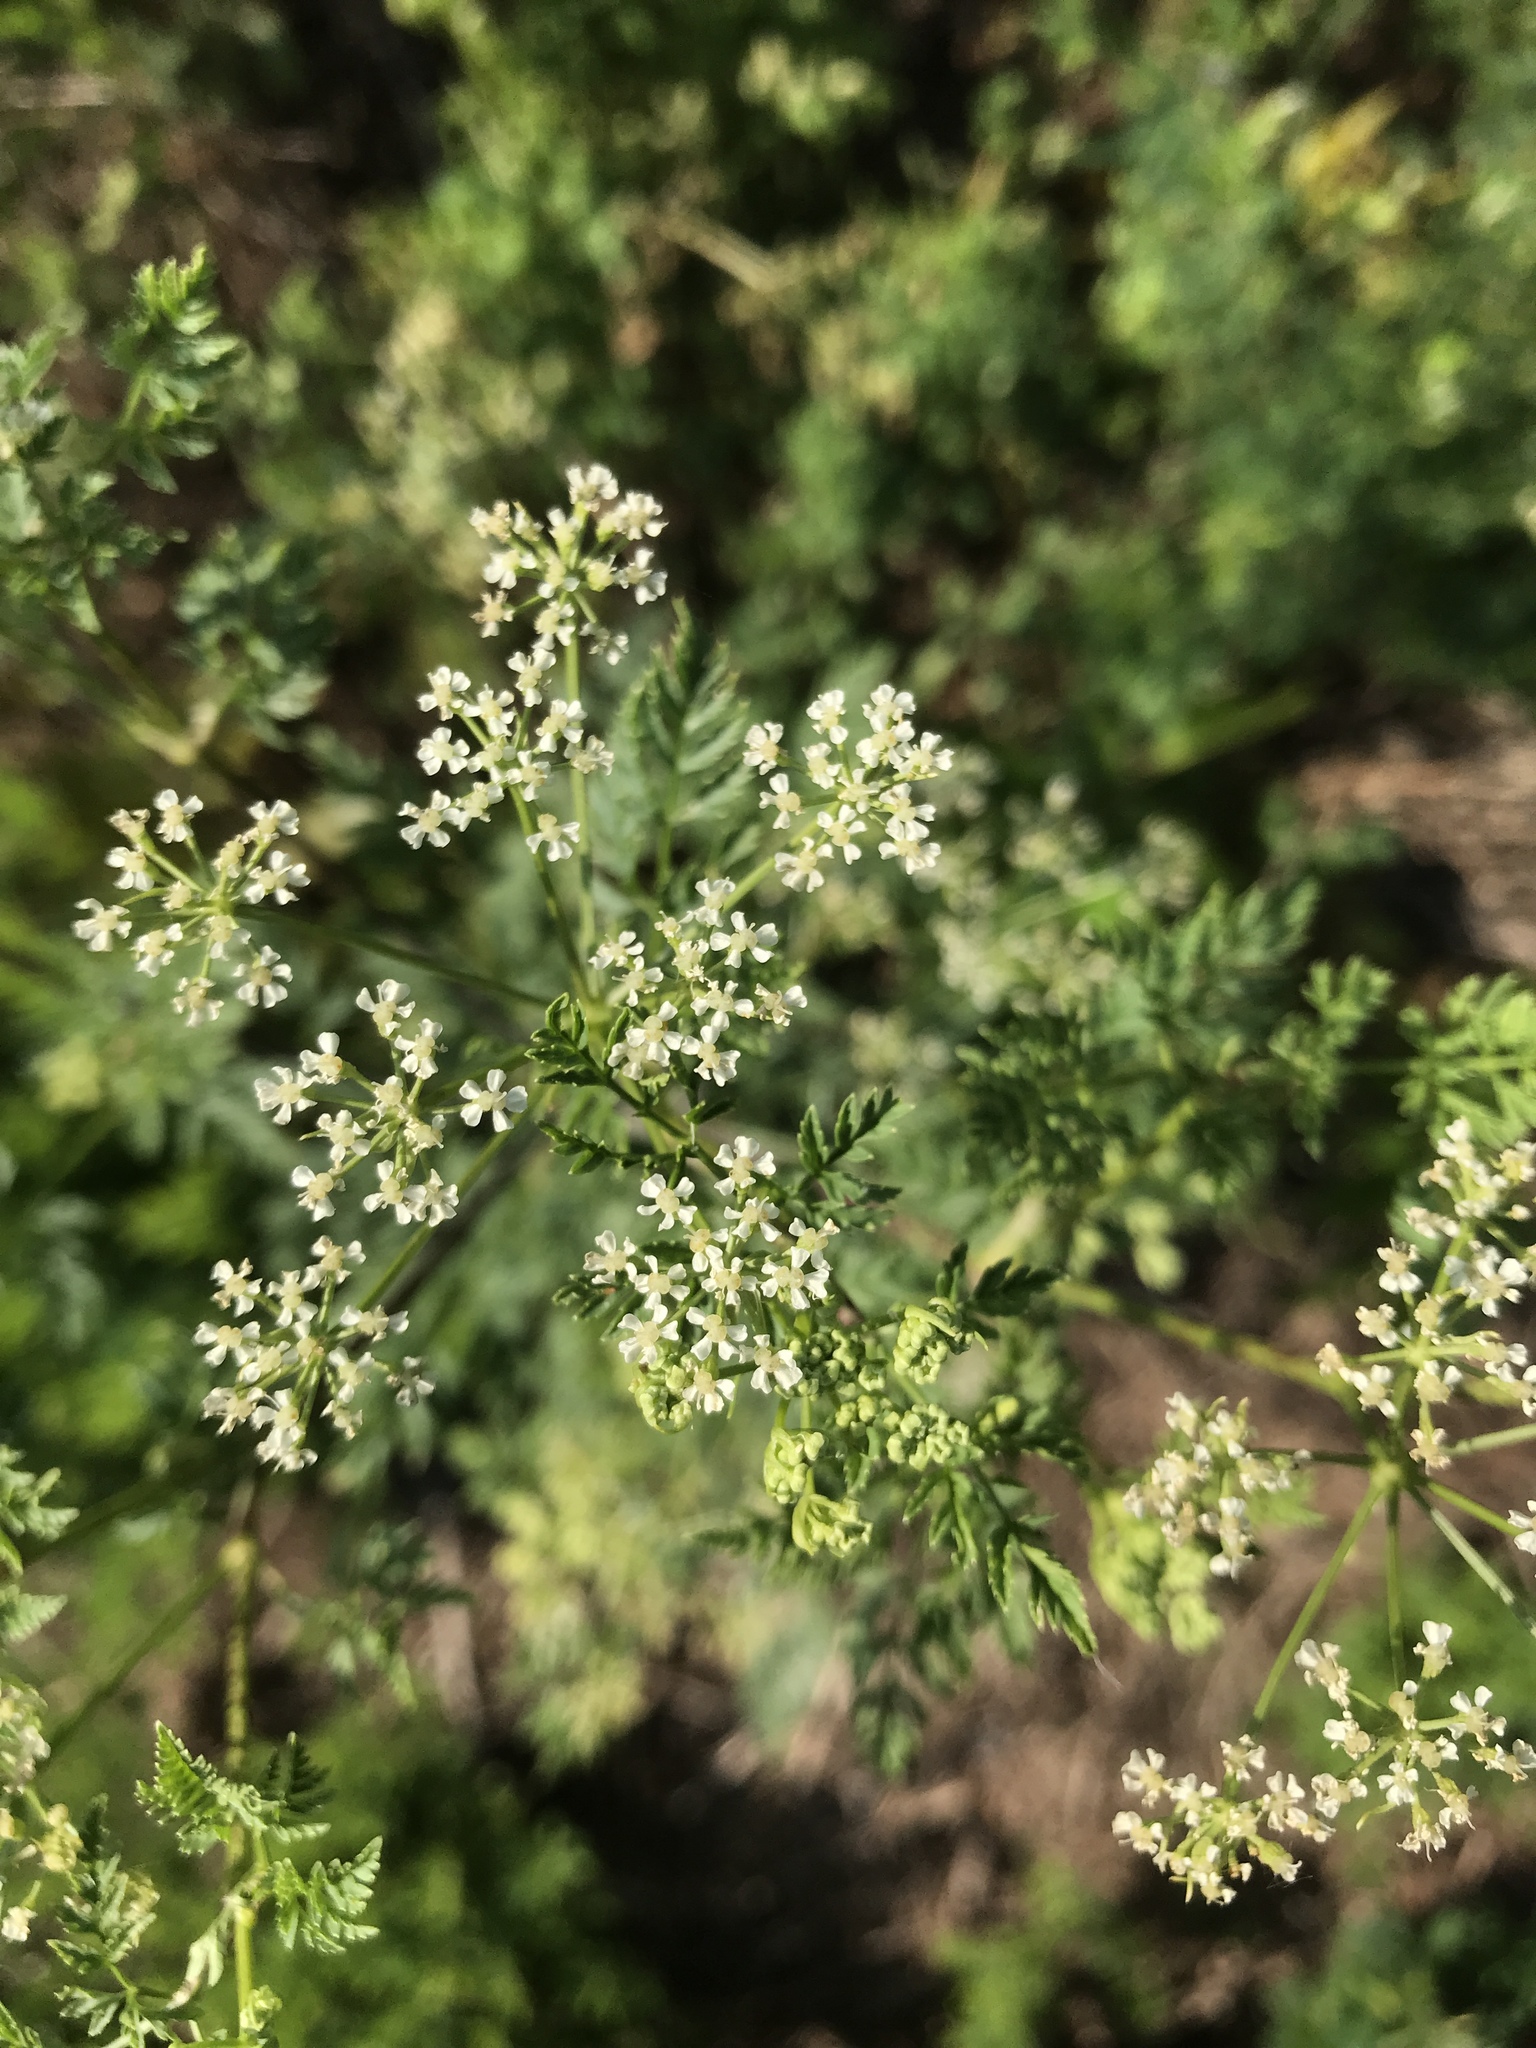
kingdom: Plantae
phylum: Tracheophyta
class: Magnoliopsida
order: Apiales
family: Apiaceae
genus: Conium
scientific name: Conium maculatum
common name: Hemlock
